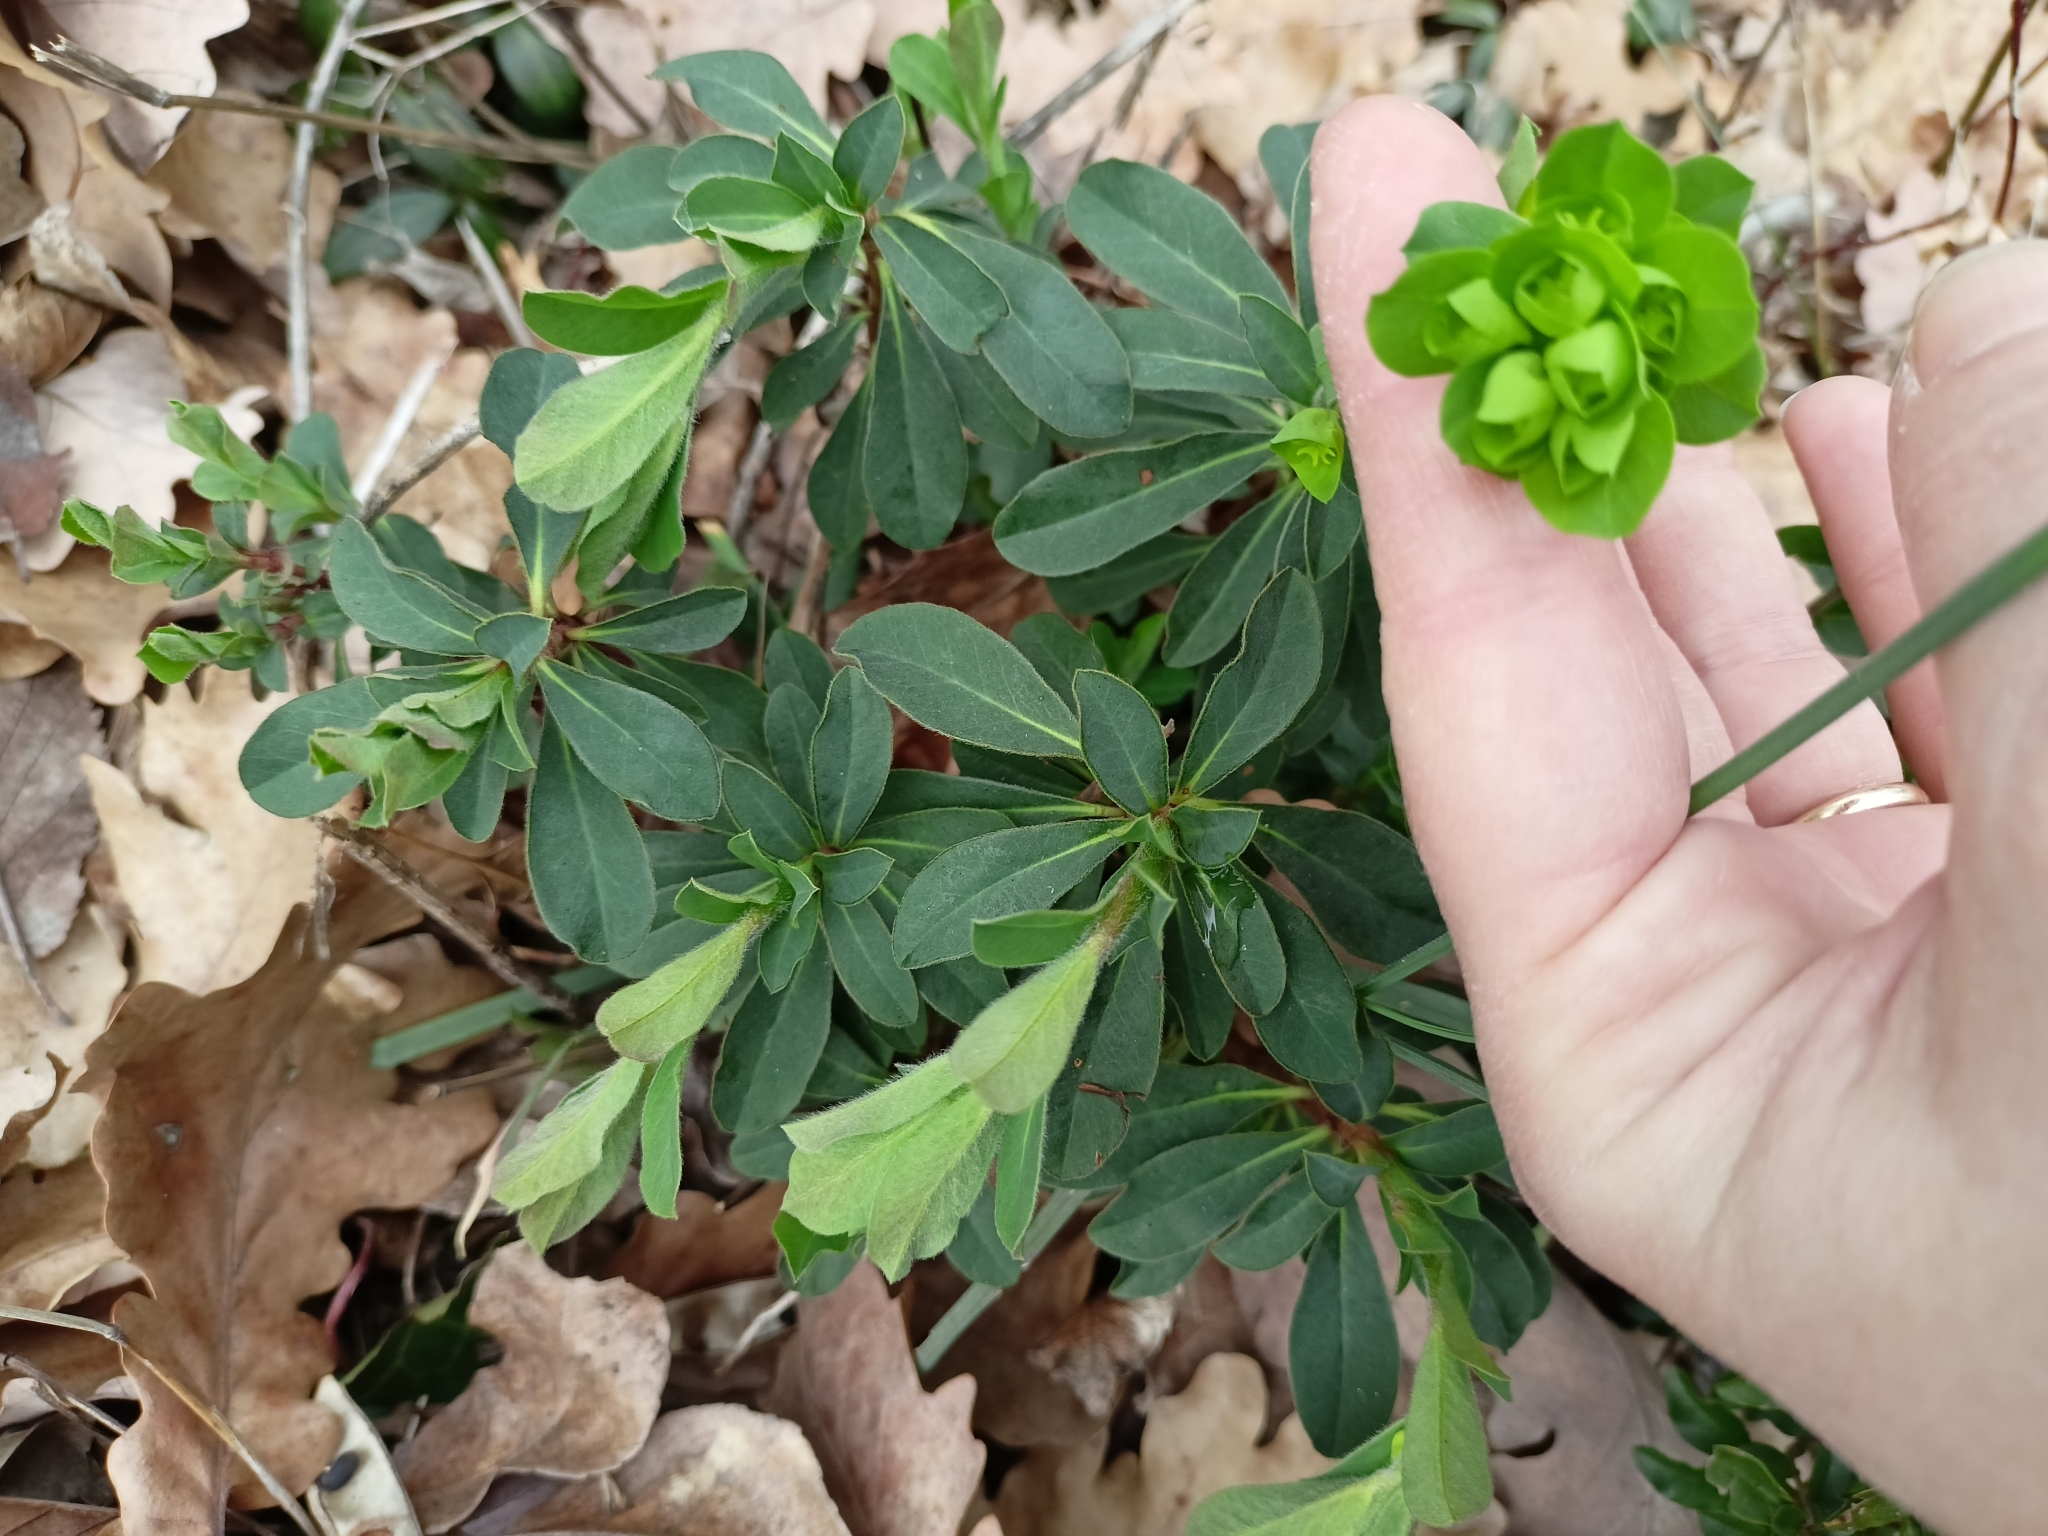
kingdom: Plantae
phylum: Tracheophyta
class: Magnoliopsida
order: Malpighiales
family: Euphorbiaceae
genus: Euphorbia
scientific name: Euphorbia amygdaloides
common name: Wood spurge
